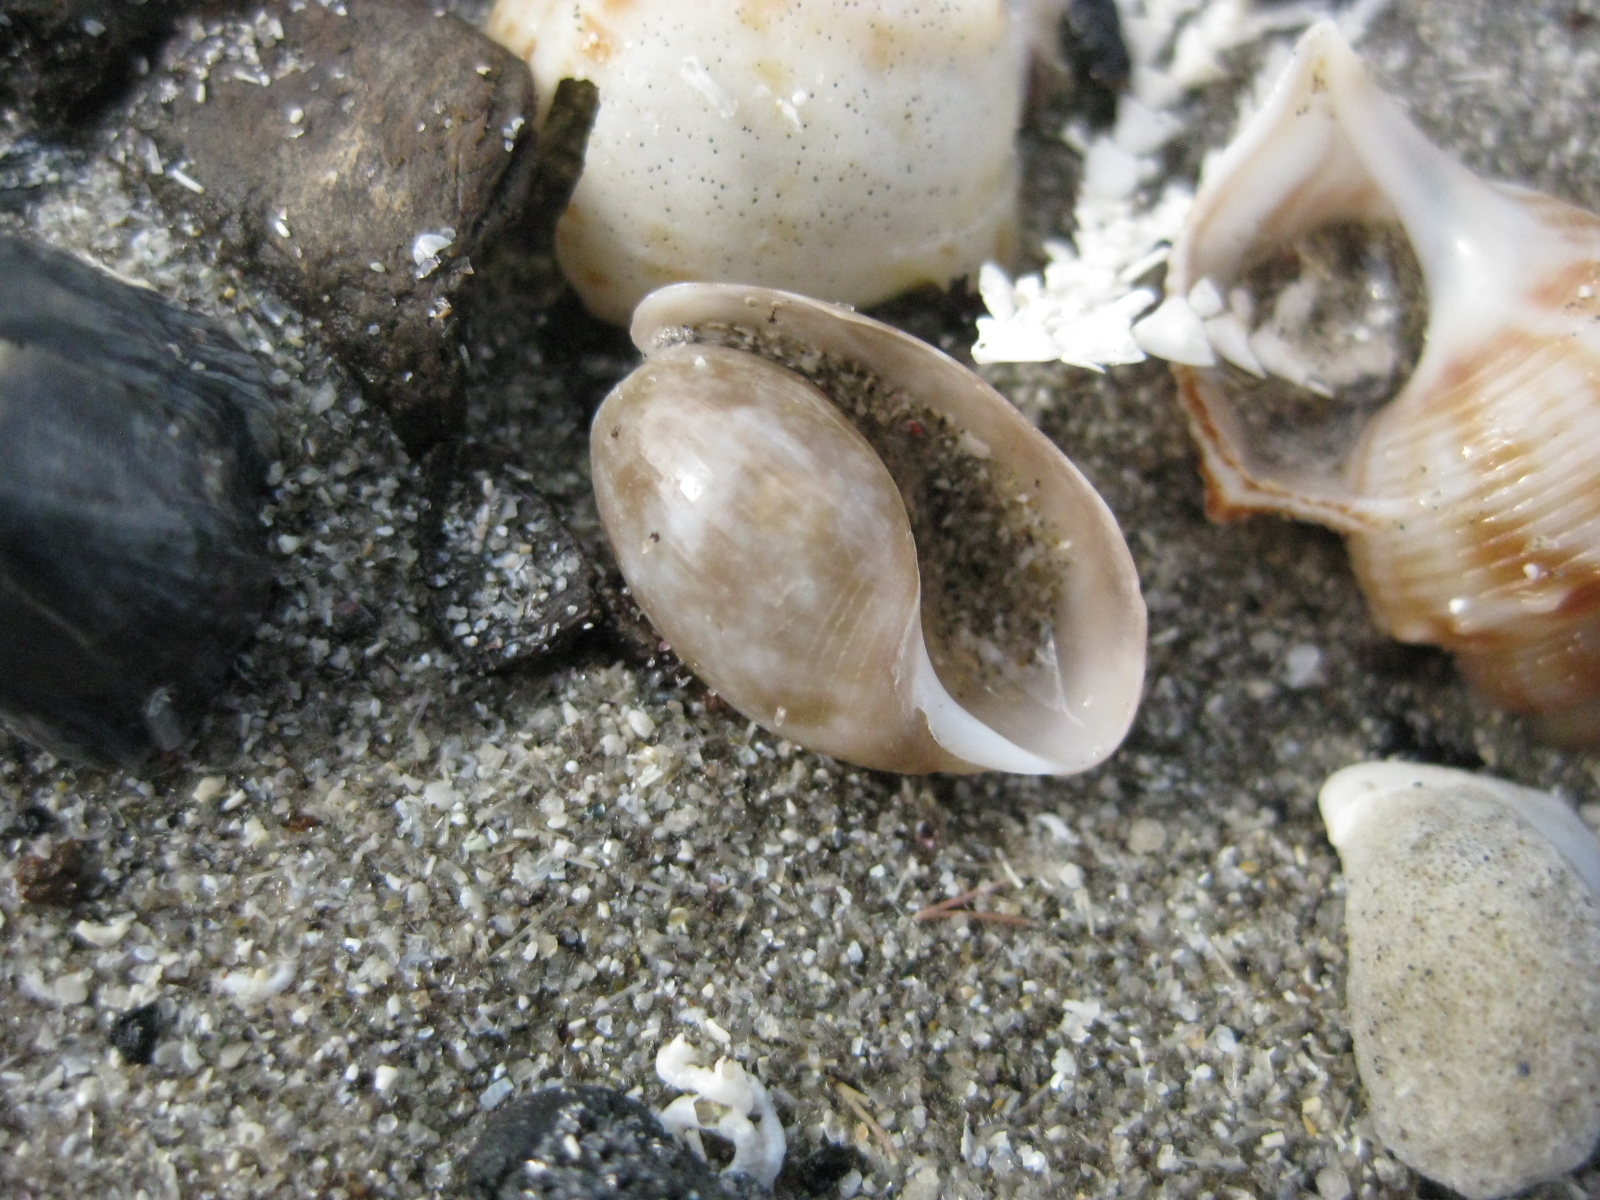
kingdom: Animalia
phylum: Mollusca
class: Gastropoda
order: Cephalaspidea
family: Bullidae
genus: Bulla
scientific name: Bulla quoyii
